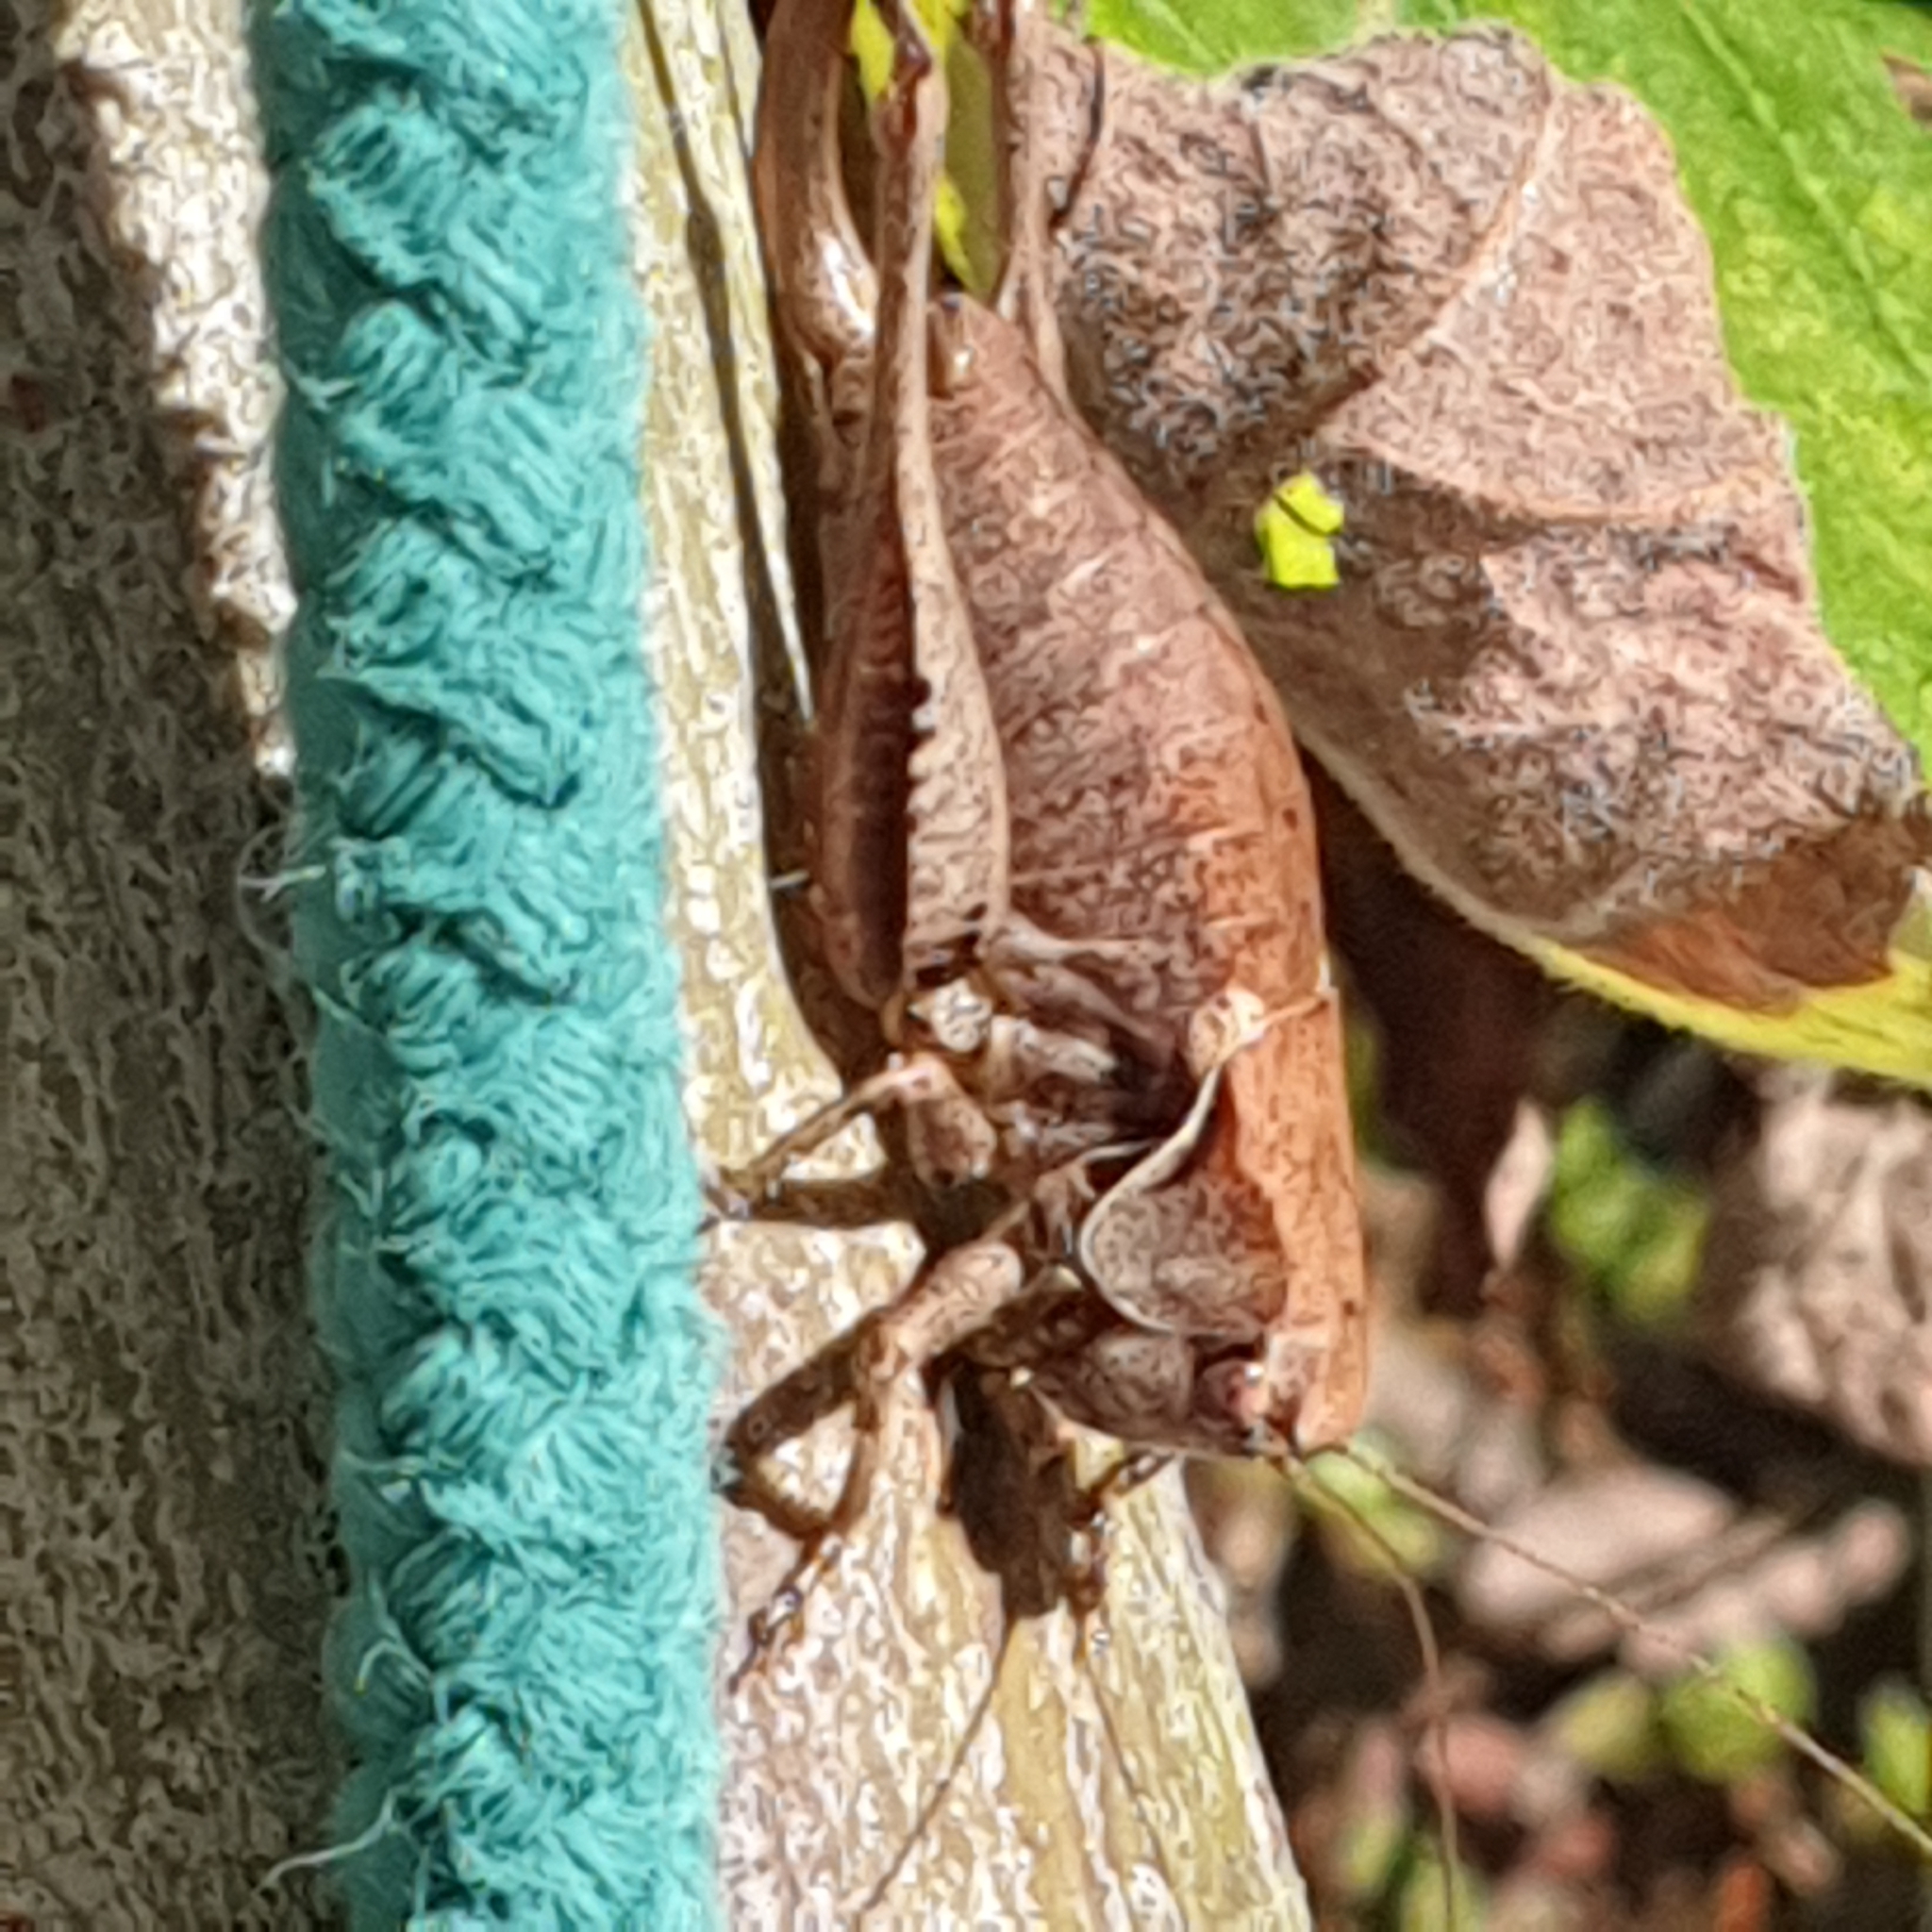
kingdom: Animalia
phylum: Arthropoda
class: Insecta
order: Orthoptera
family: Tettigoniidae
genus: Pholidoptera
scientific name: Pholidoptera griseoaptera
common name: Dark bush-cricket
